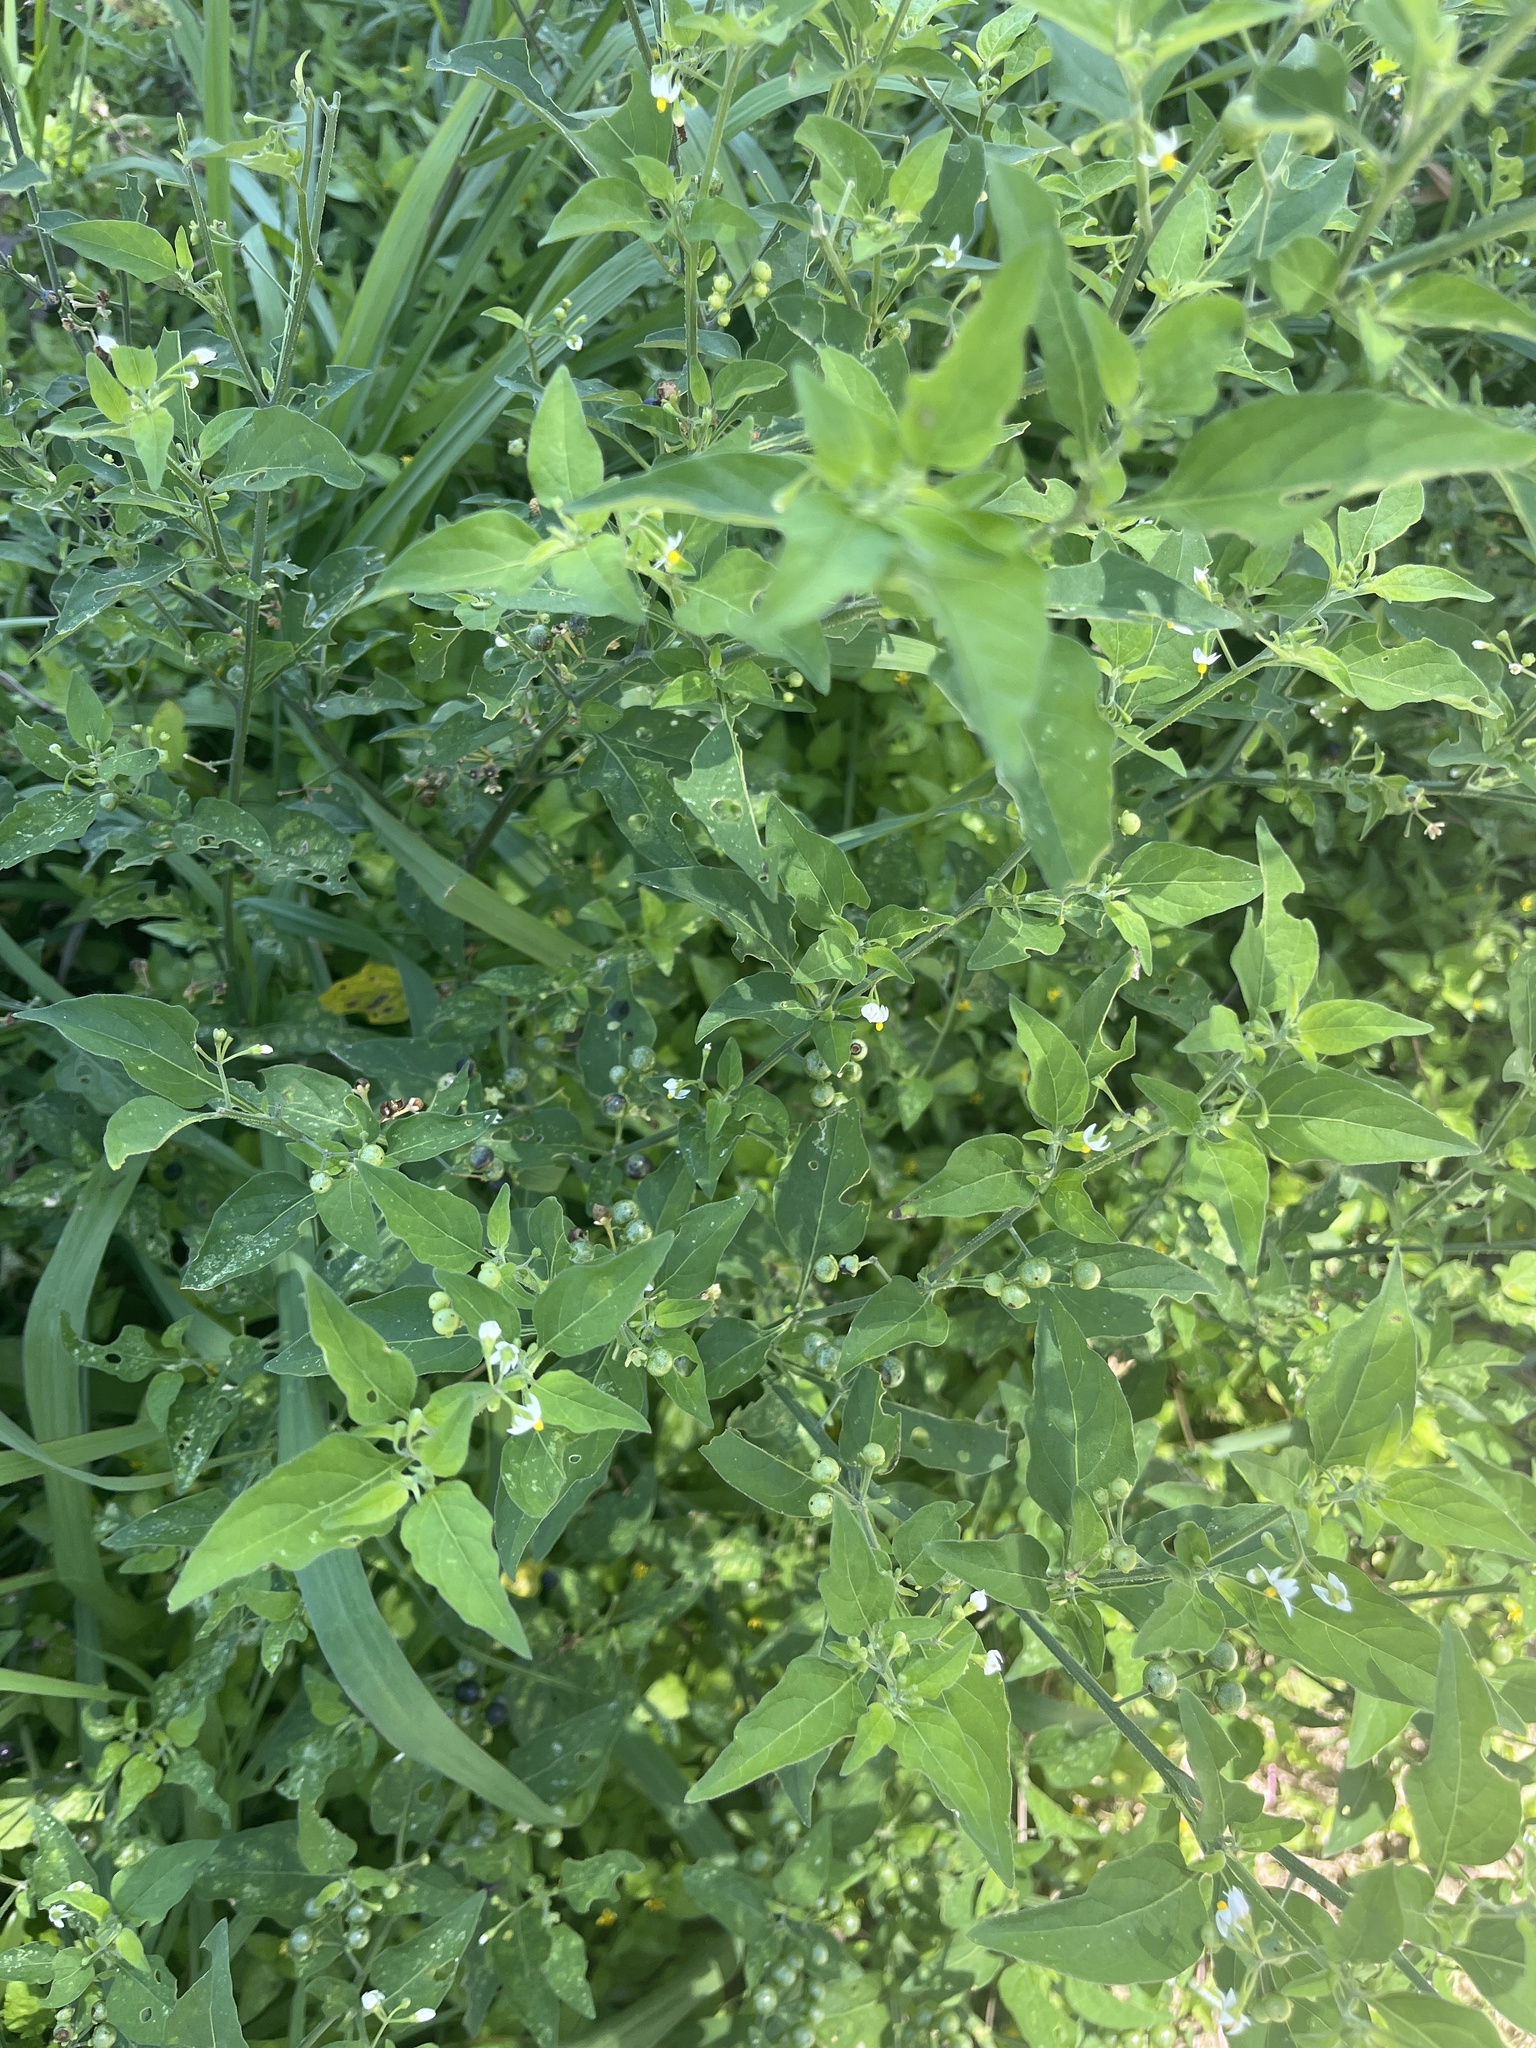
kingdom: Plantae
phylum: Tracheophyta
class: Magnoliopsida
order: Solanales
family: Solanaceae
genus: Solanum
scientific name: Solanum americanum
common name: American black nightshade
